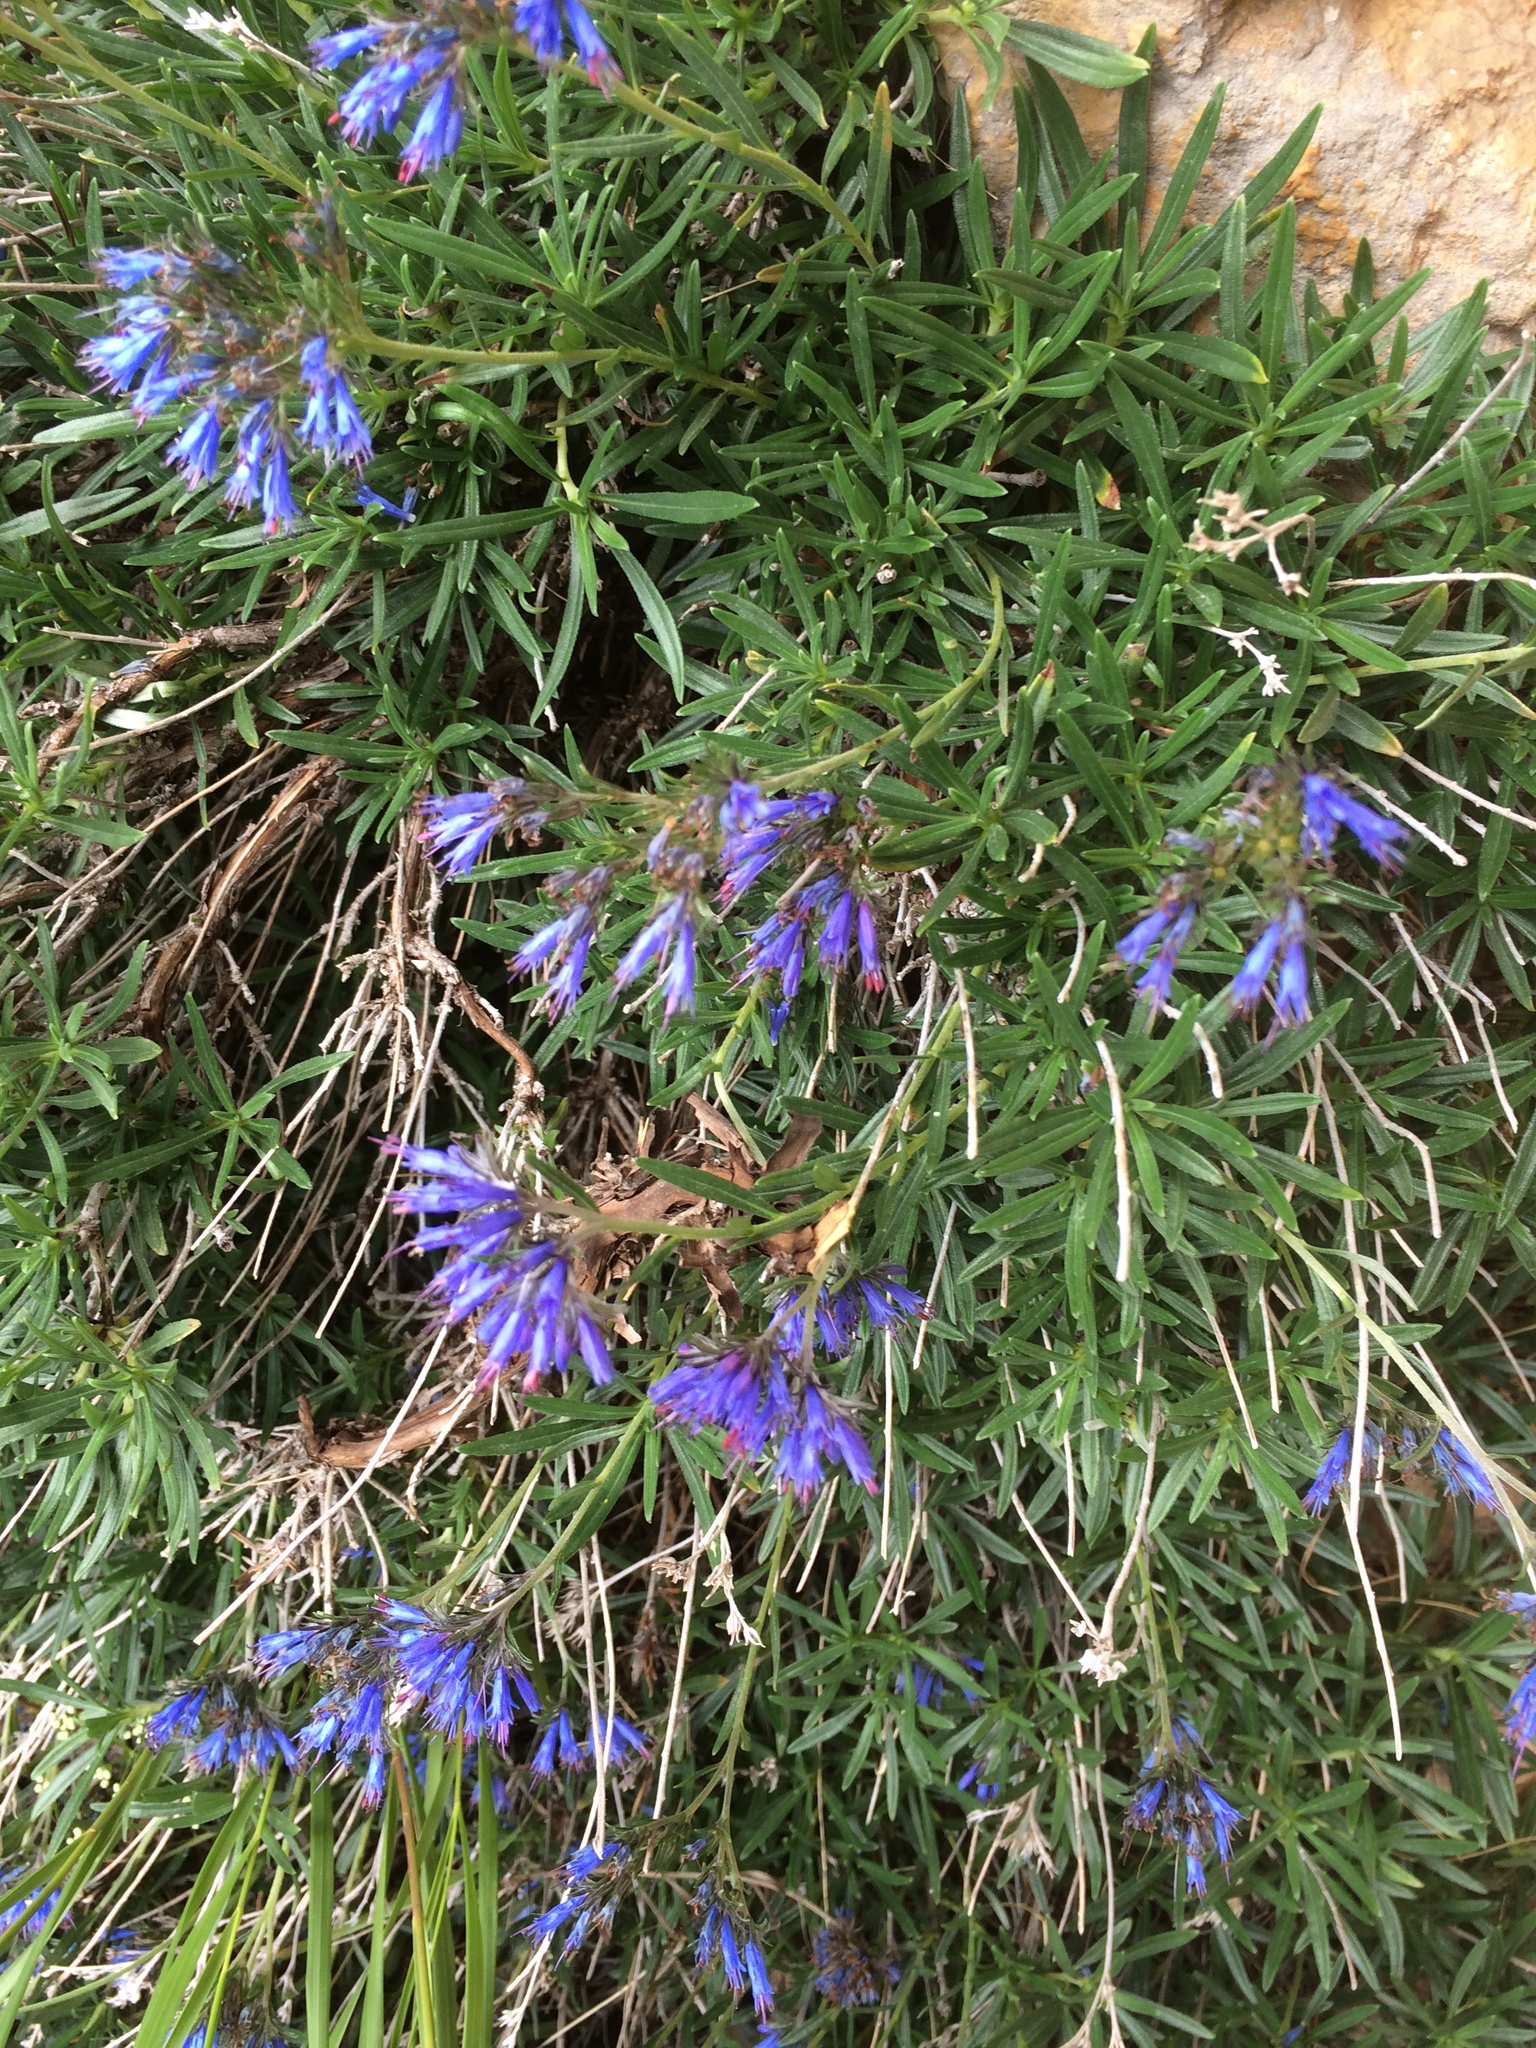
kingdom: Plantae
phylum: Tracheophyta
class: Magnoliopsida
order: Boraginales
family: Boraginaceae
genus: Moltkia
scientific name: Moltkia petraea
